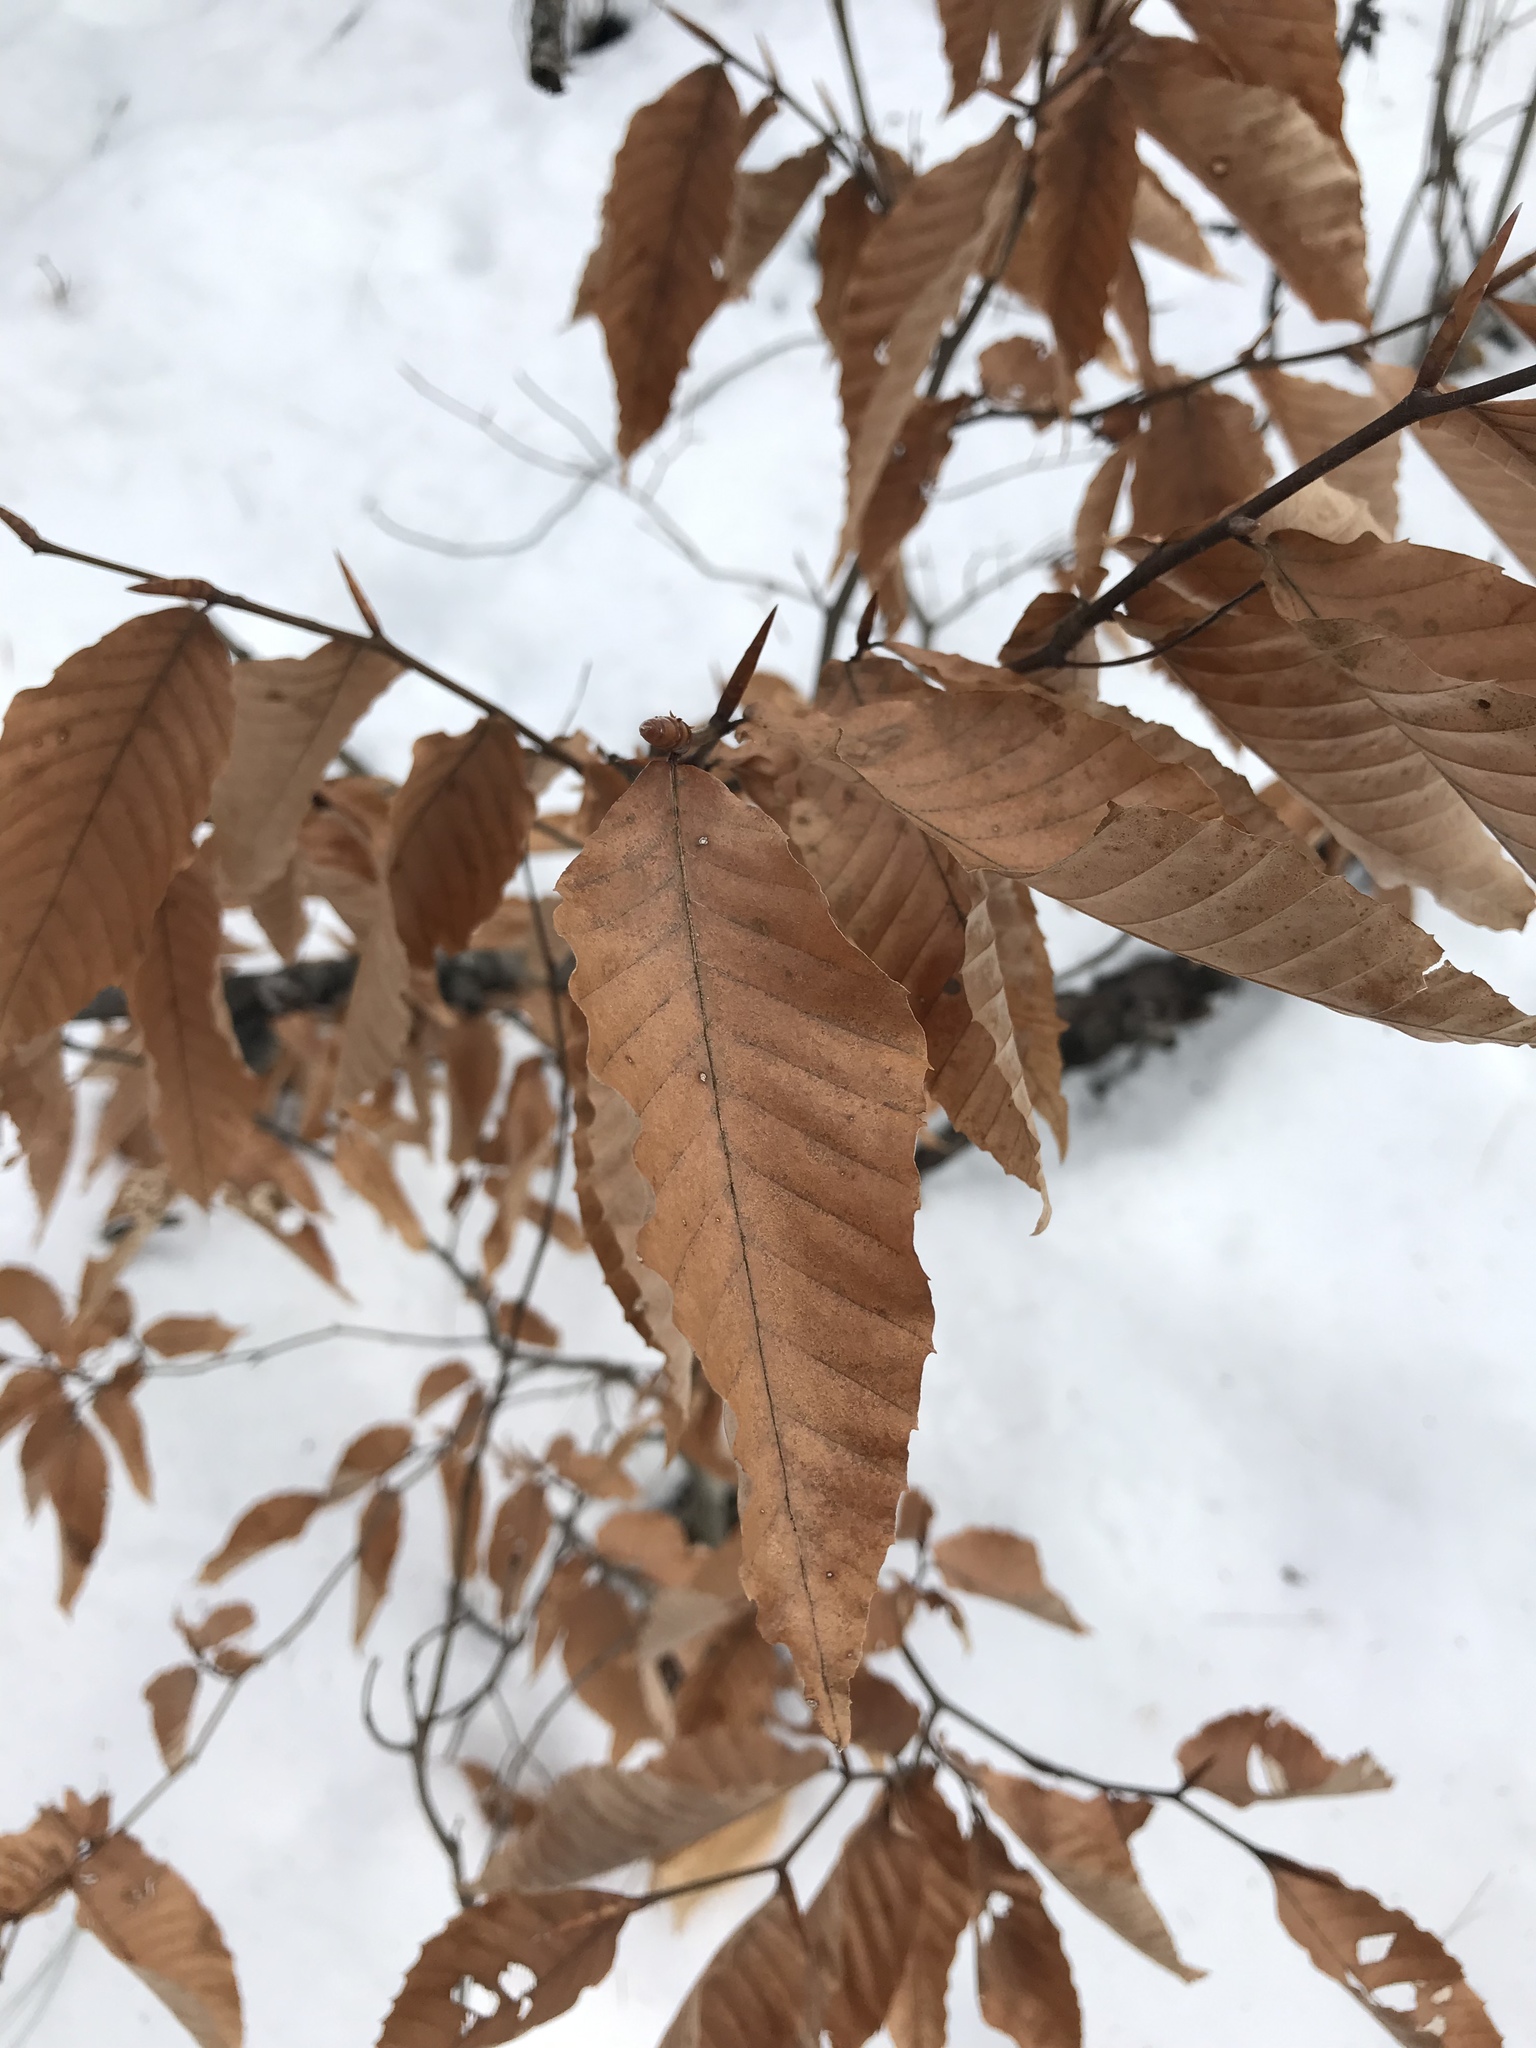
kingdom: Plantae
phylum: Tracheophyta
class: Magnoliopsida
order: Fagales
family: Fagaceae
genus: Fagus
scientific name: Fagus grandifolia
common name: American beech
